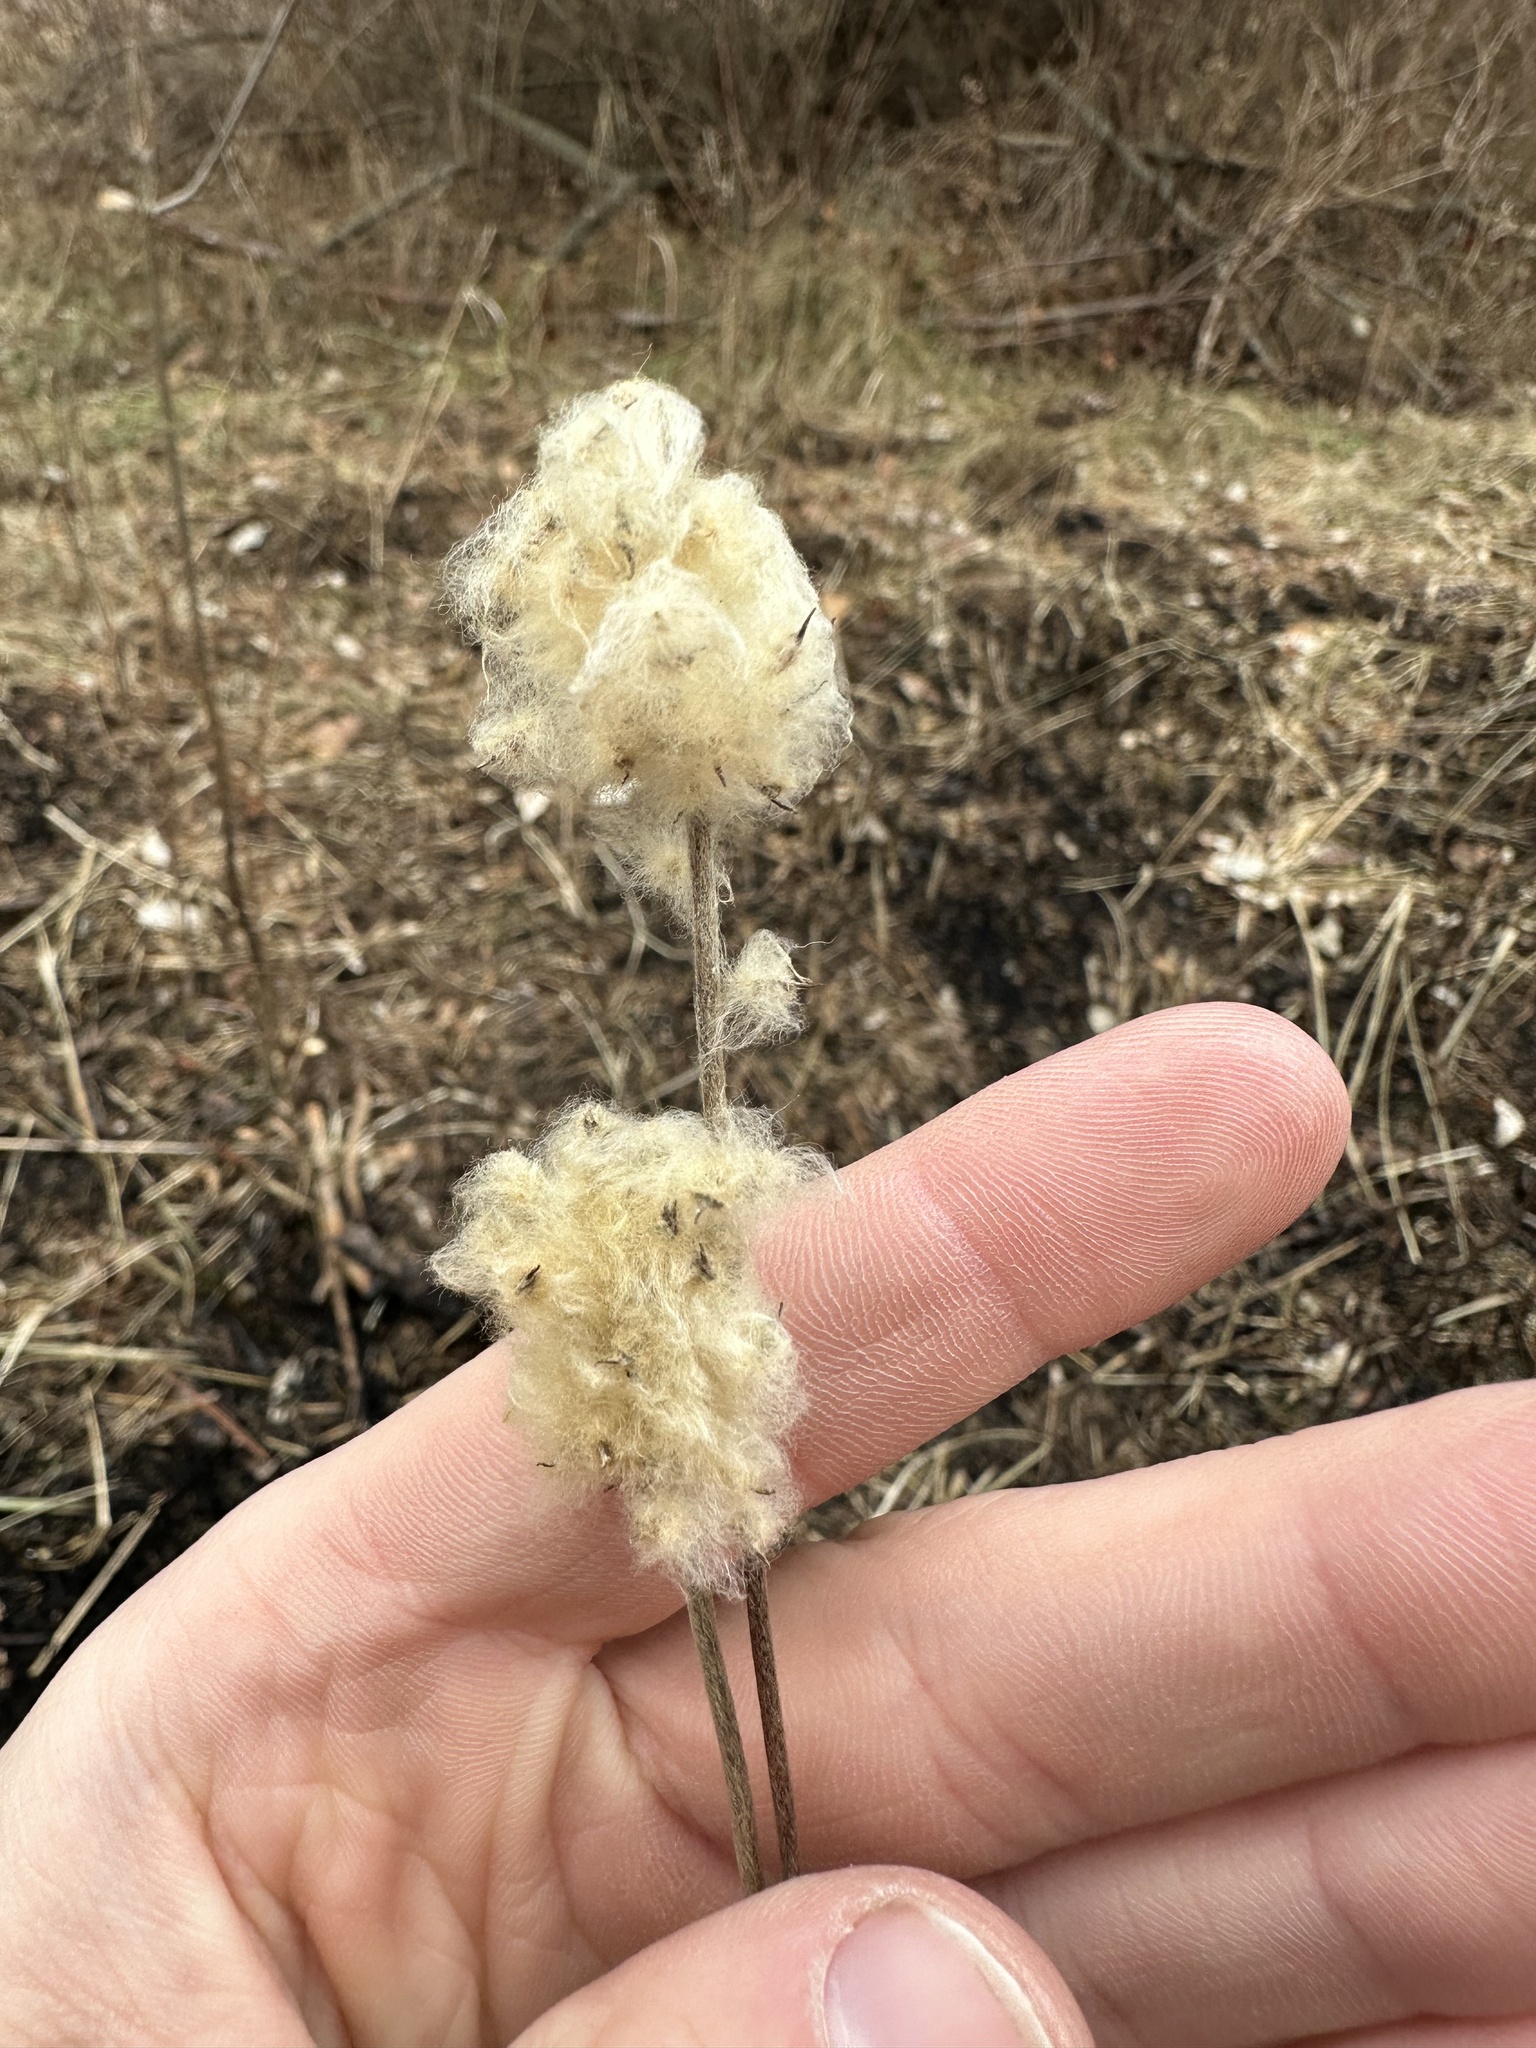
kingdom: Plantae
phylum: Tracheophyta
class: Magnoliopsida
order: Ranunculales
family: Ranunculaceae
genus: Anemone
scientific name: Anemone virginiana
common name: Tall anemone
